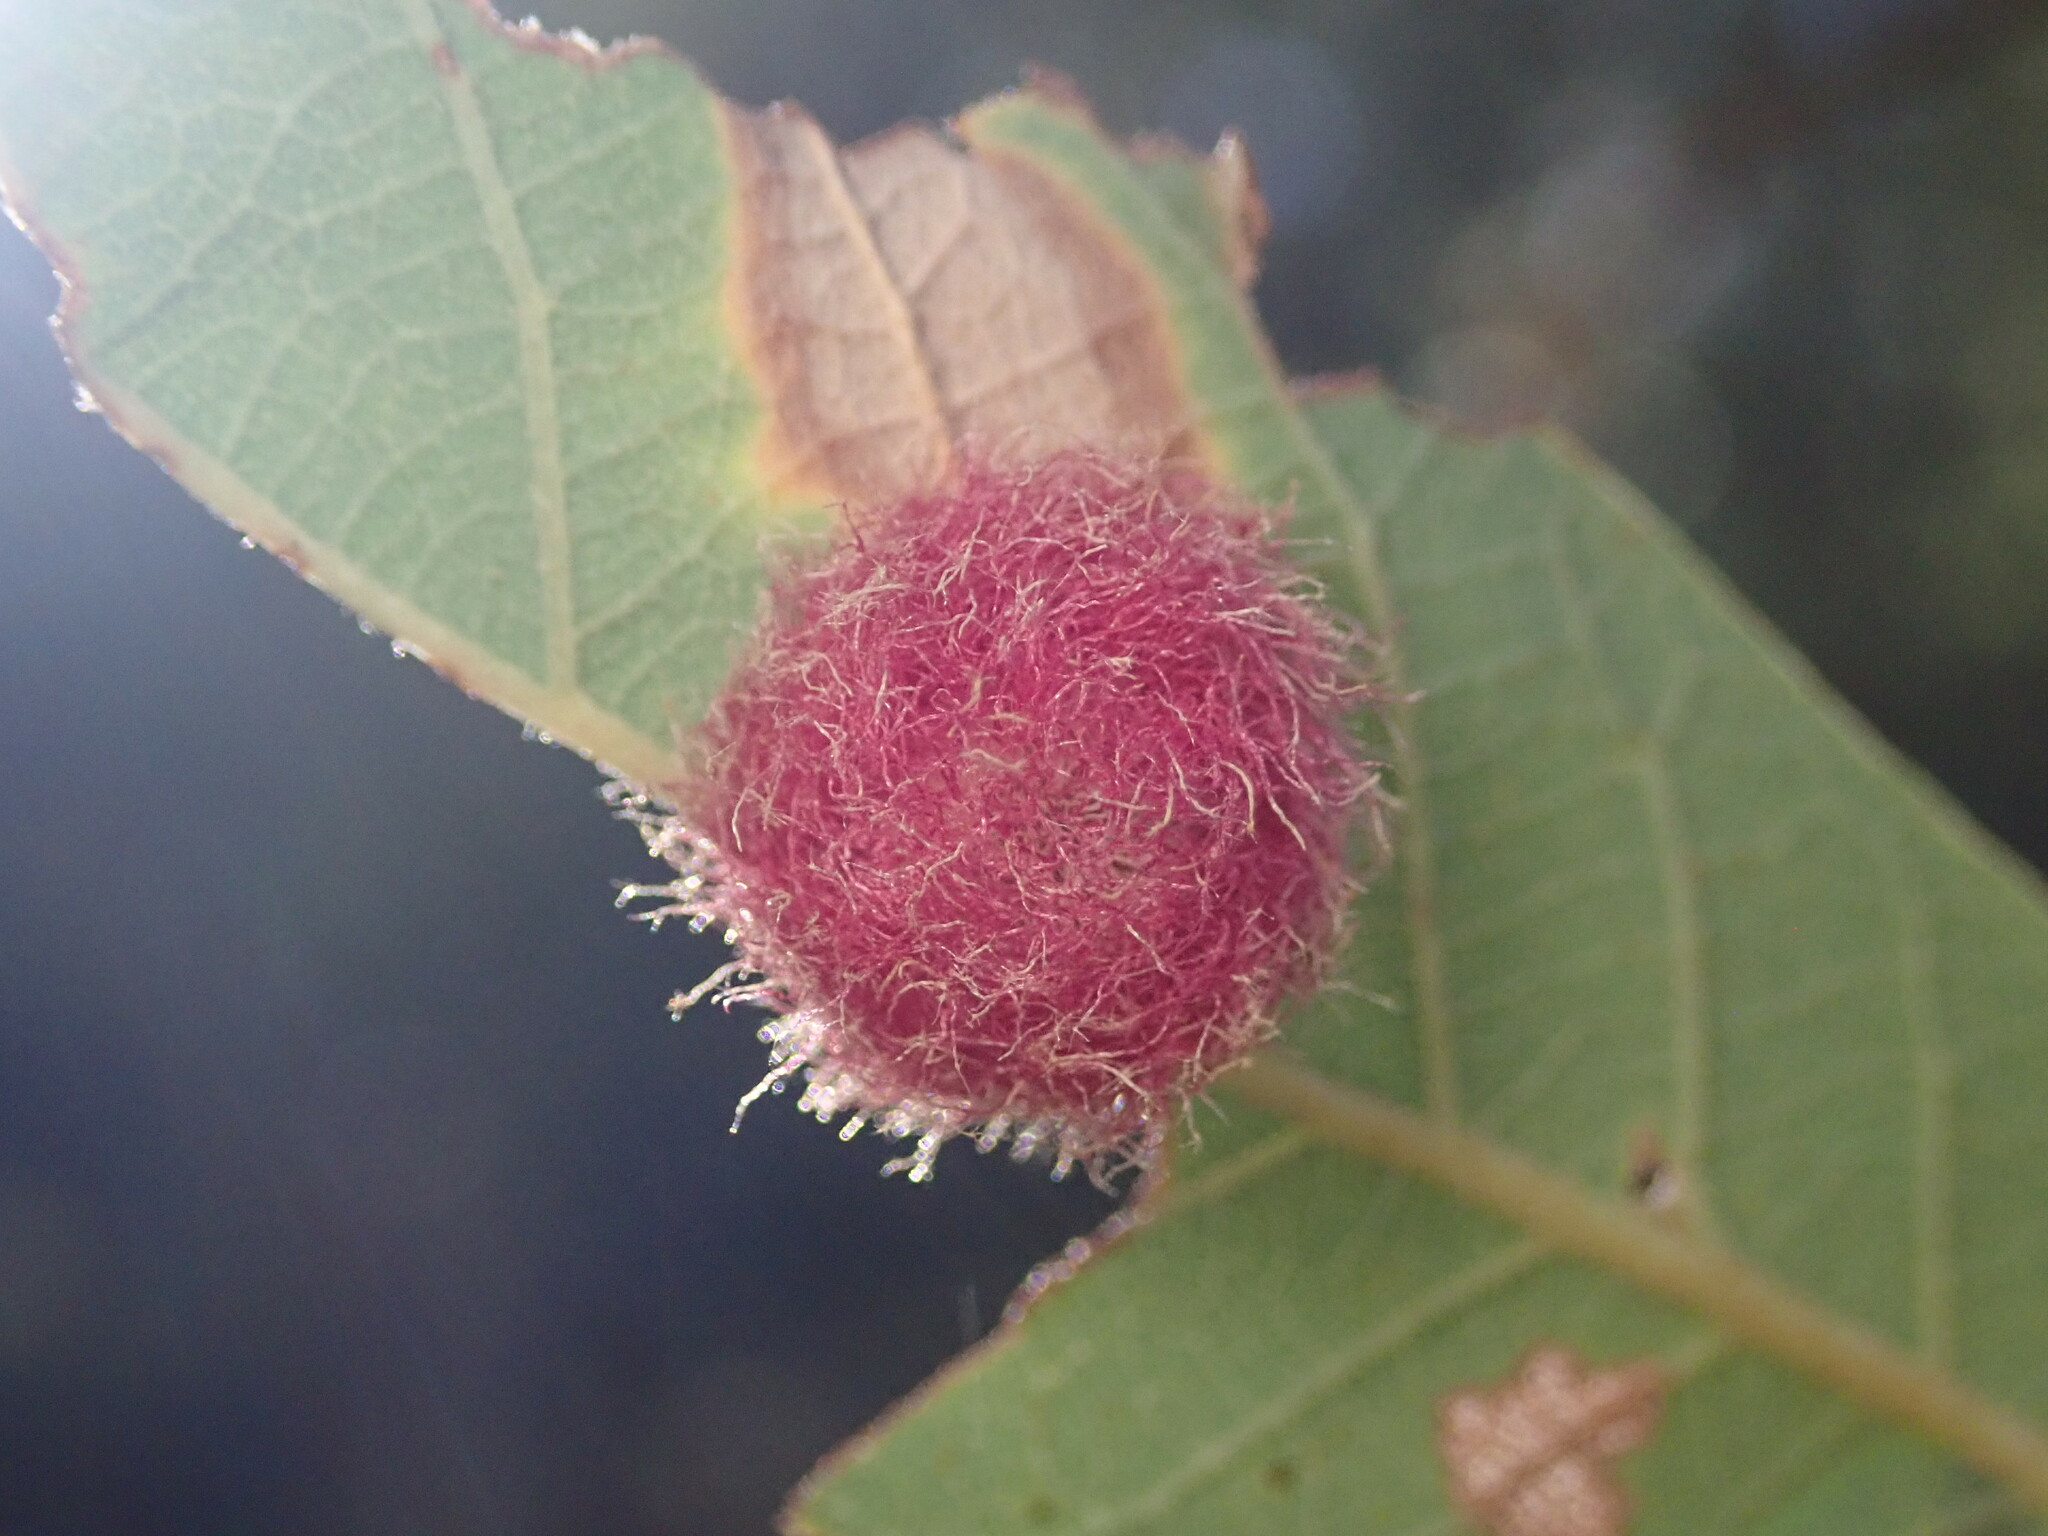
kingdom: Animalia
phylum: Arthropoda
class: Insecta
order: Hymenoptera
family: Cynipidae
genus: Cynips
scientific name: Cynips
